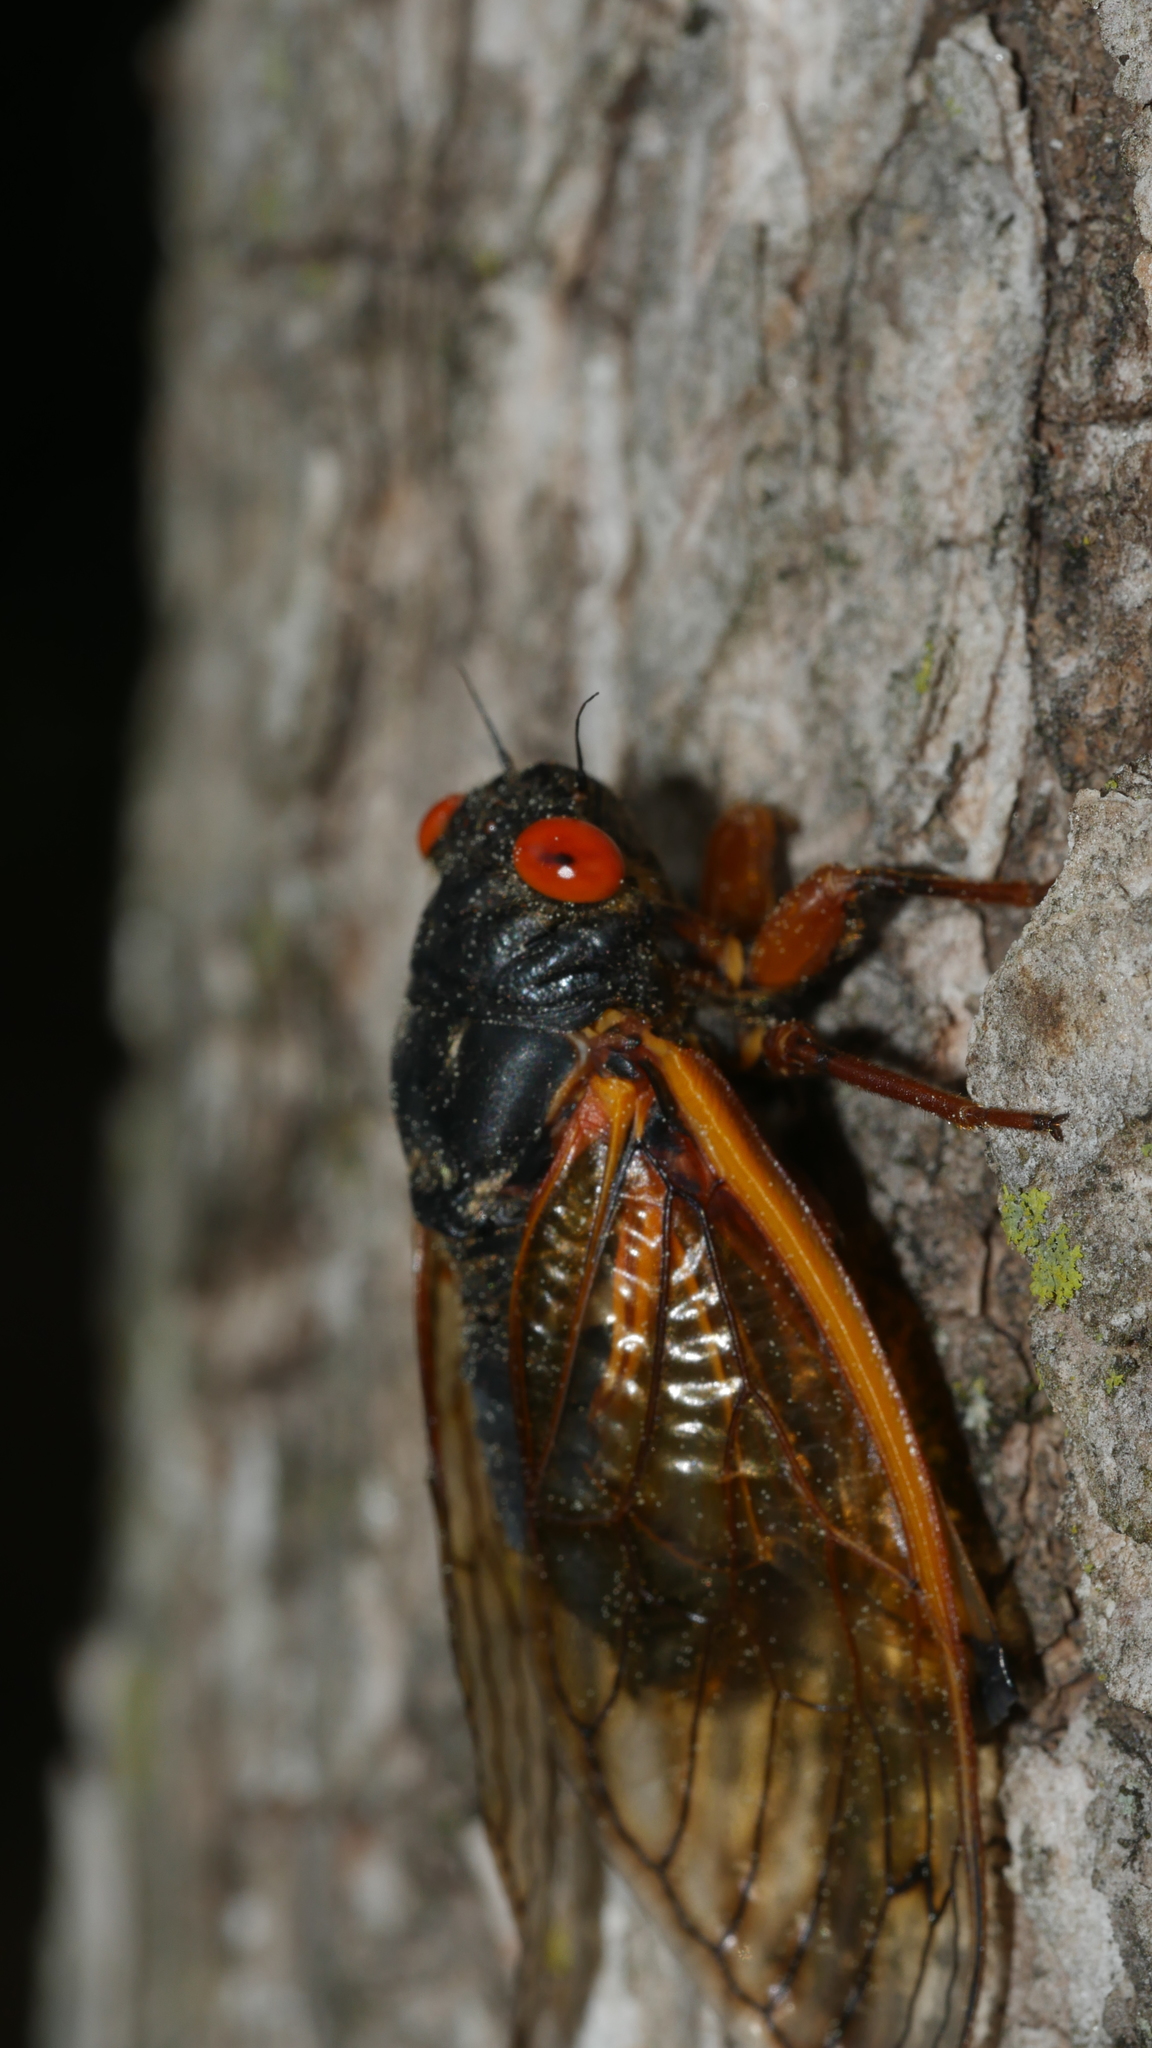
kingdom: Animalia
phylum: Arthropoda
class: Insecta
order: Hemiptera
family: Cicadidae
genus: Magicicada
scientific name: Magicicada septendecula
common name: Decula periodical cicada
